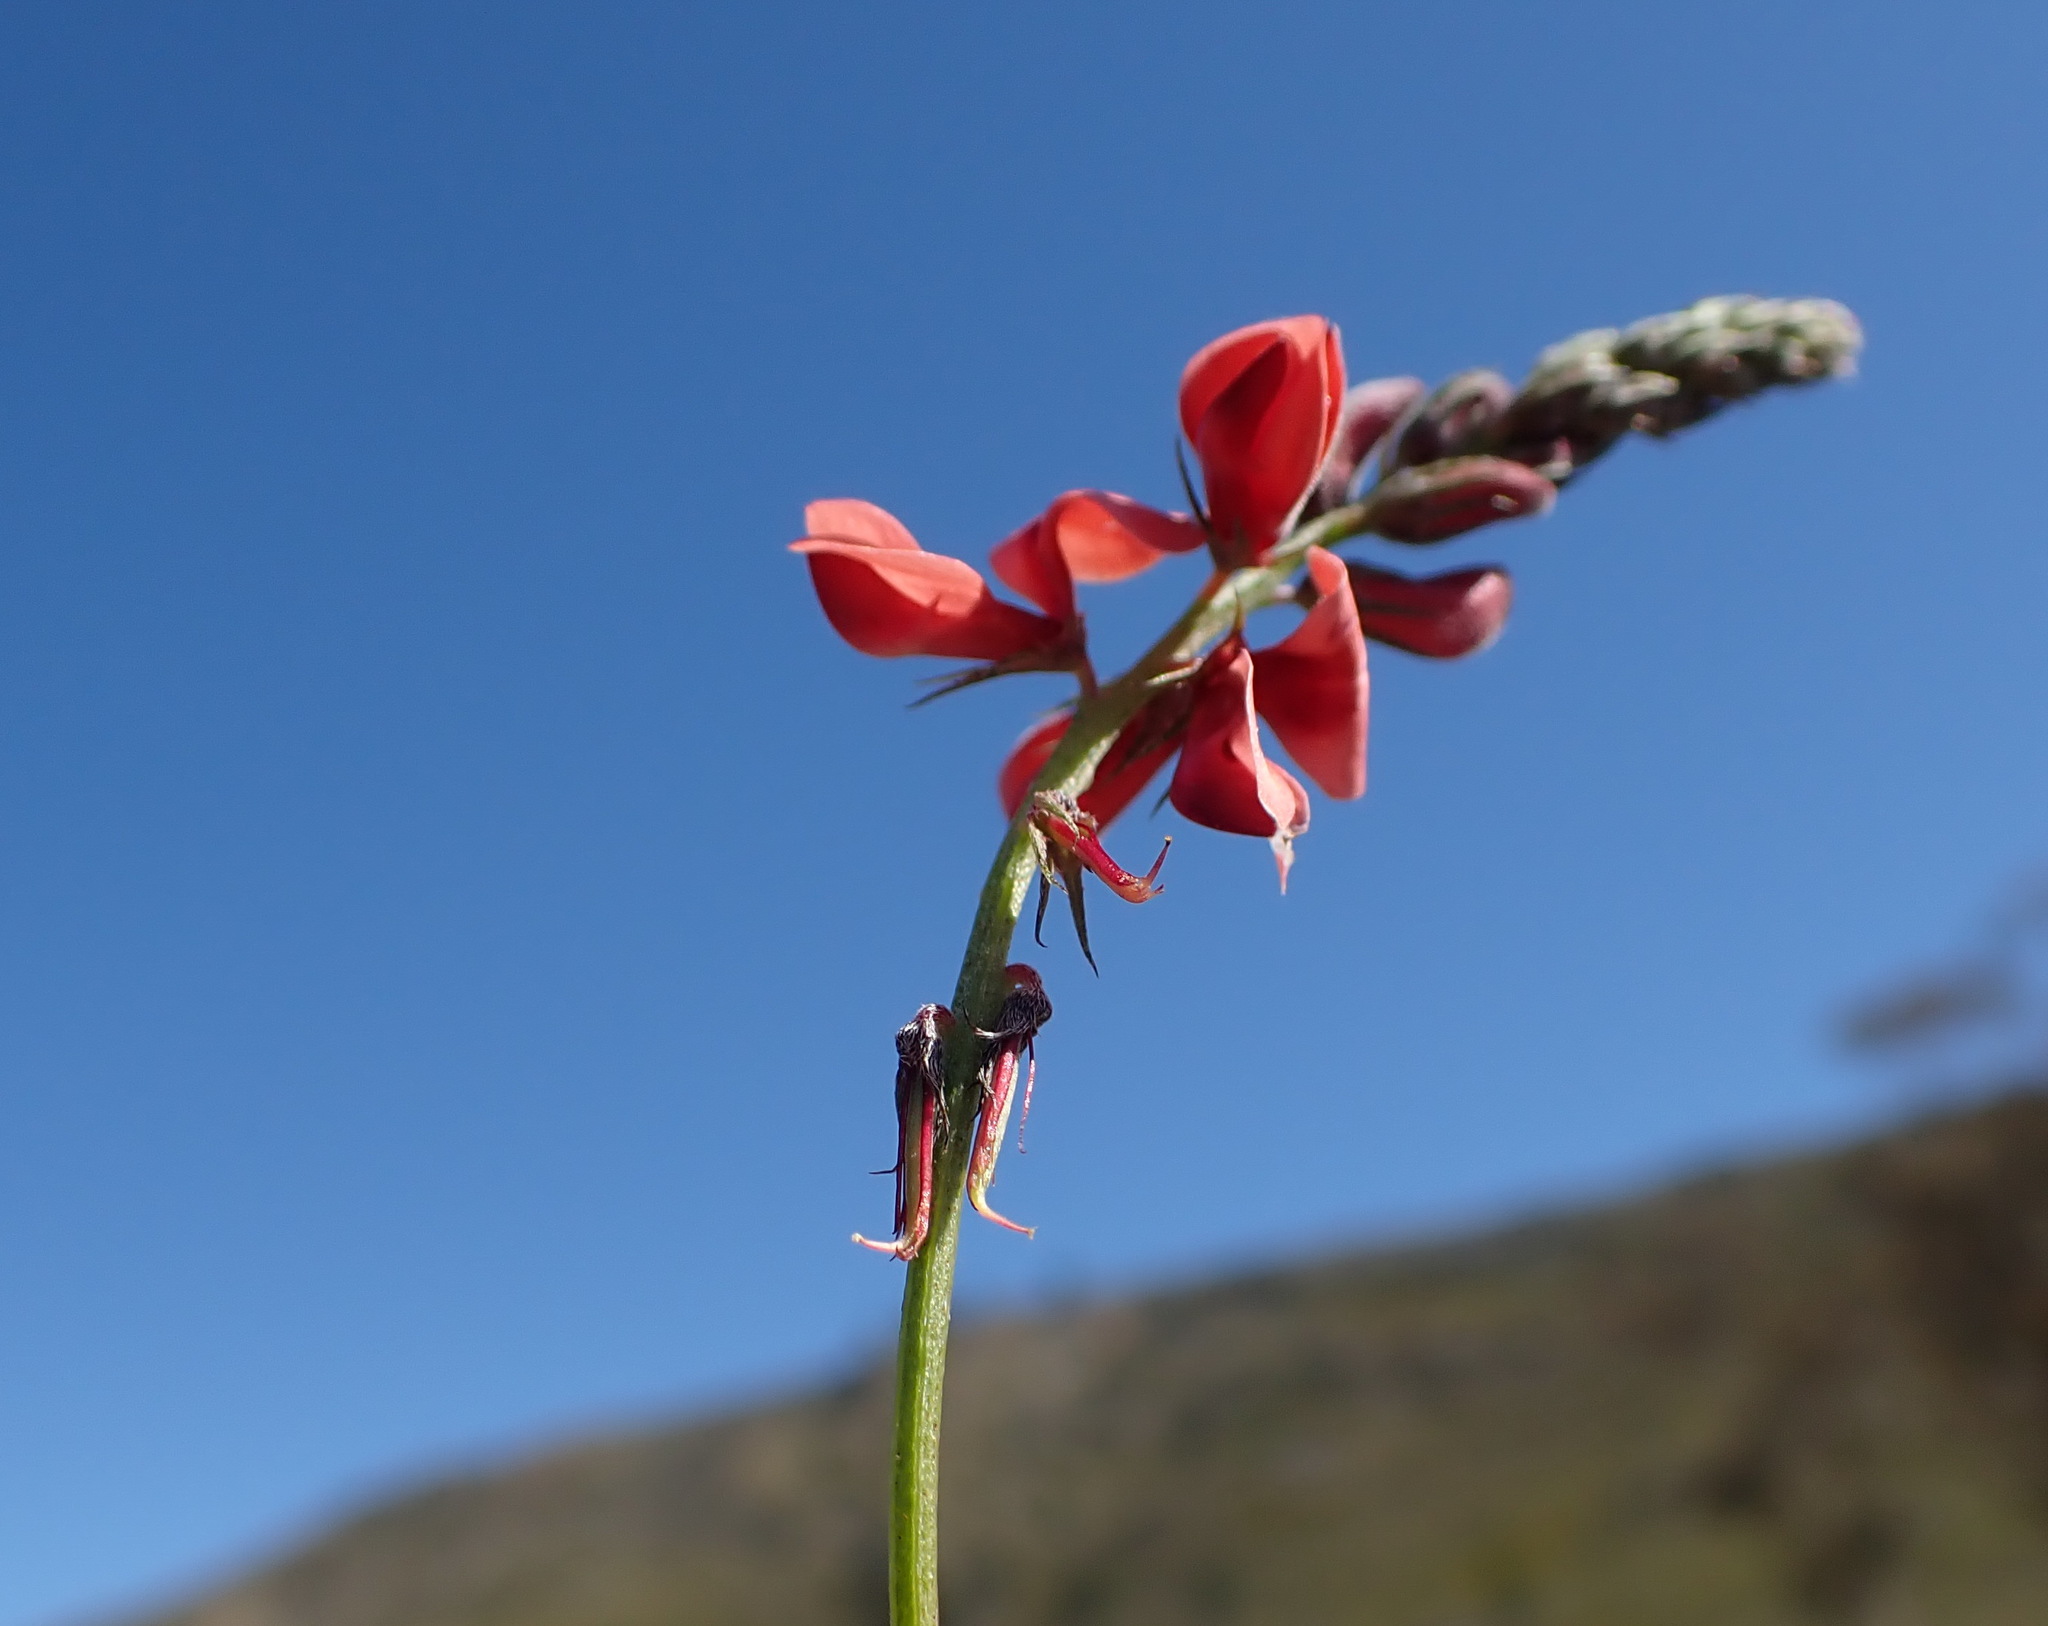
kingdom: Plantae
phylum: Tracheophyta
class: Magnoliopsida
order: Fabales
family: Fabaceae
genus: Indigofera
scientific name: Indigofera heterophylla
